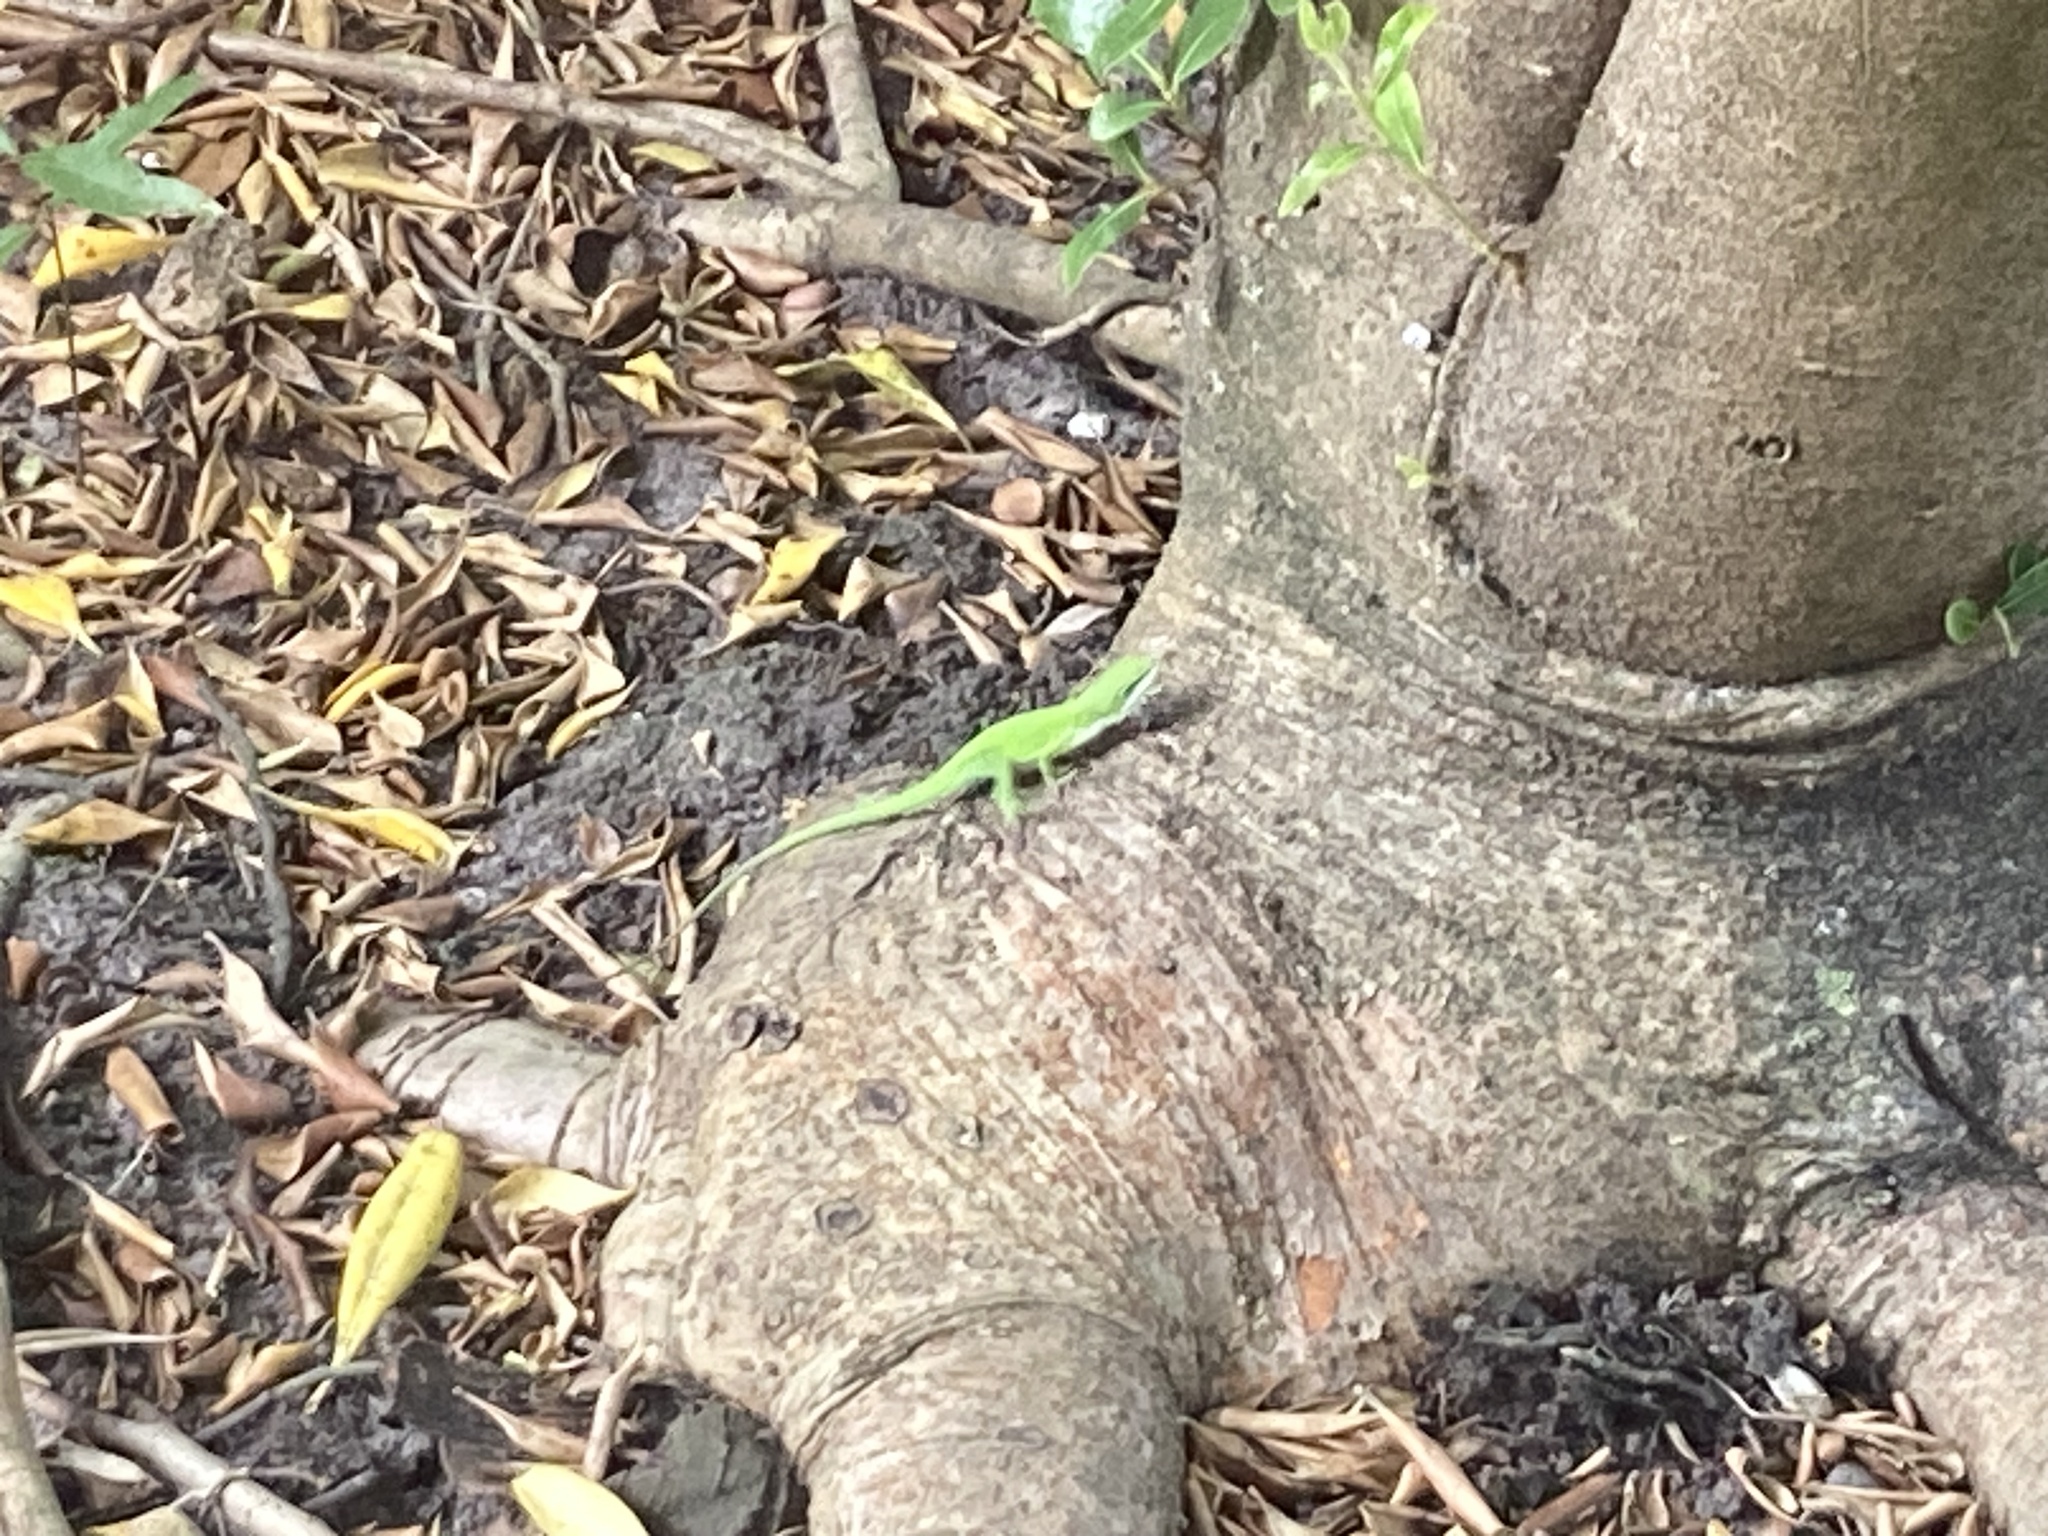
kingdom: Animalia
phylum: Chordata
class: Squamata
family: Dactyloidae
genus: Anolis
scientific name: Anolis carolinensis
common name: Green anole
